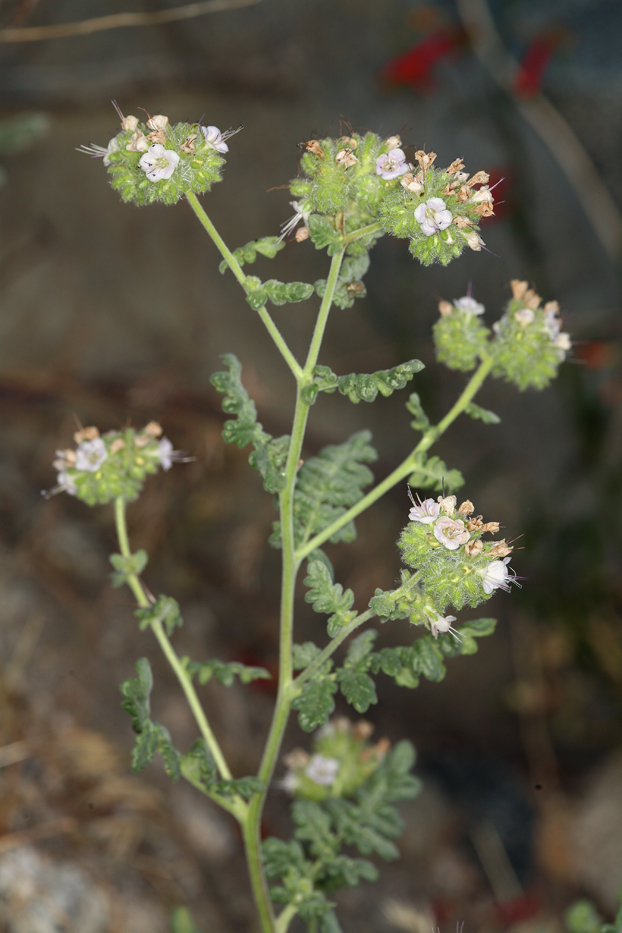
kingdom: Plantae
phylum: Tracheophyta
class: Magnoliopsida
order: Boraginales
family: Hydrophyllaceae
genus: Phacelia
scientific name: Phacelia ramosissima
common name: Branching phacelia
